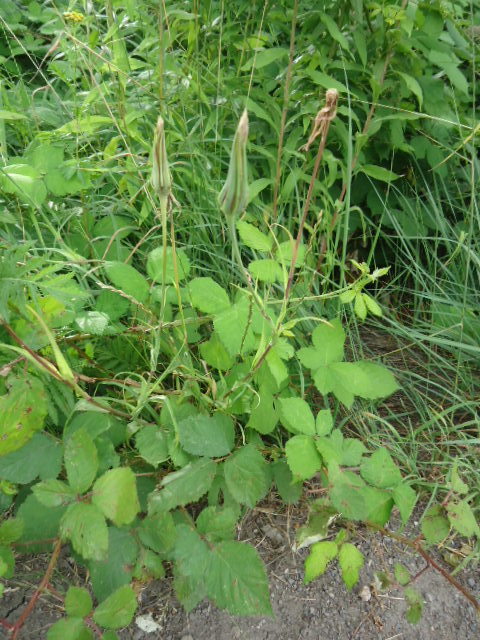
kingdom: Plantae
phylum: Tracheophyta
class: Magnoliopsida
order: Asterales
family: Asteraceae
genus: Tragopogon
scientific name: Tragopogon pratensis
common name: Goat's-beard
